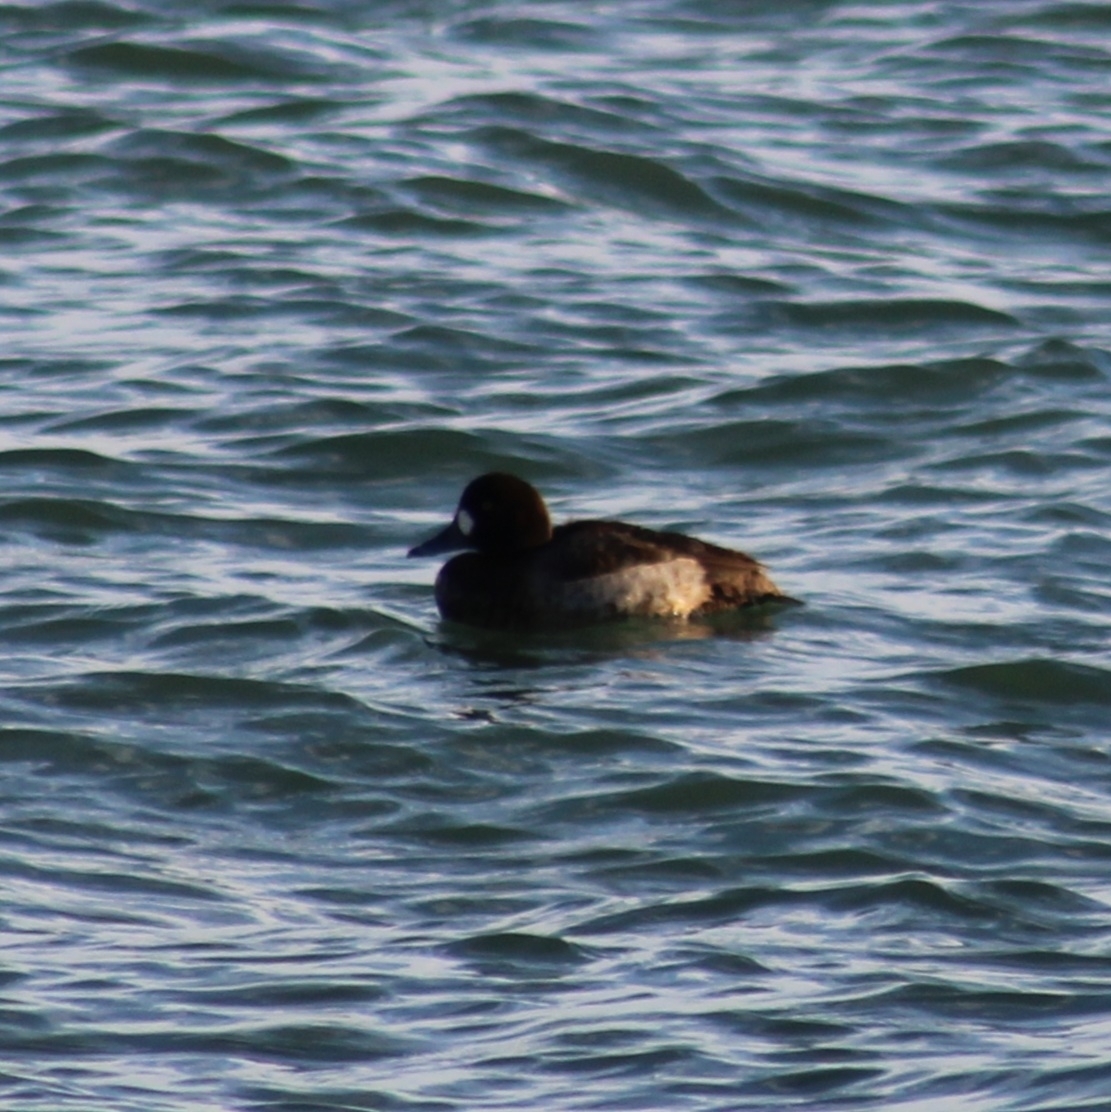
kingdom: Animalia
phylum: Chordata
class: Aves
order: Anseriformes
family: Anatidae
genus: Aythya
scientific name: Aythya marila
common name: Greater scaup
